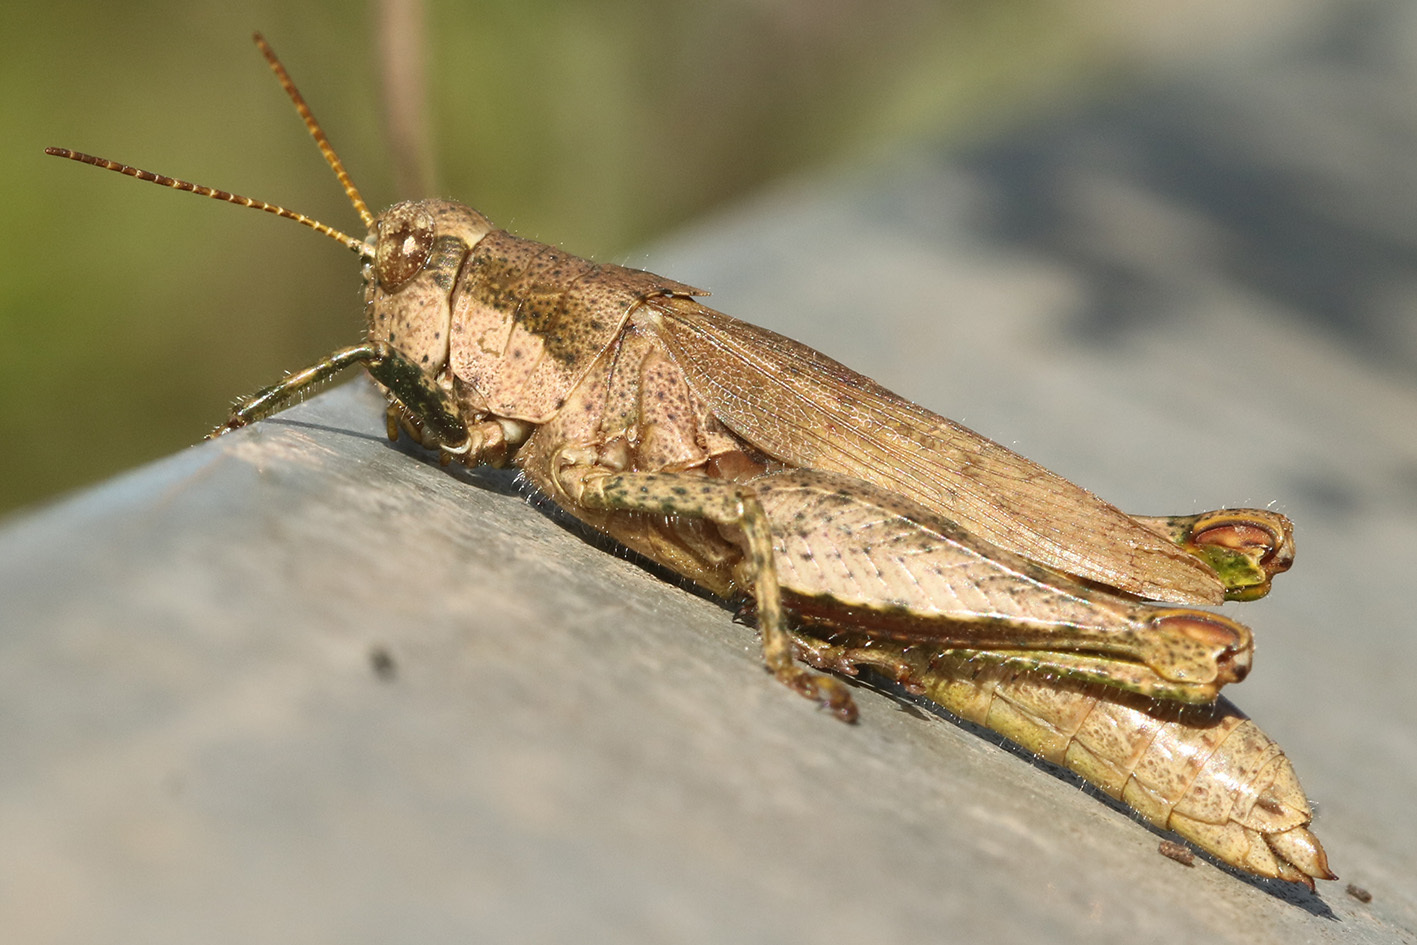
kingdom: Animalia
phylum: Arthropoda
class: Insecta
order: Orthoptera
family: Acrididae
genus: Ronderosia
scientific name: Ronderosia bergii
